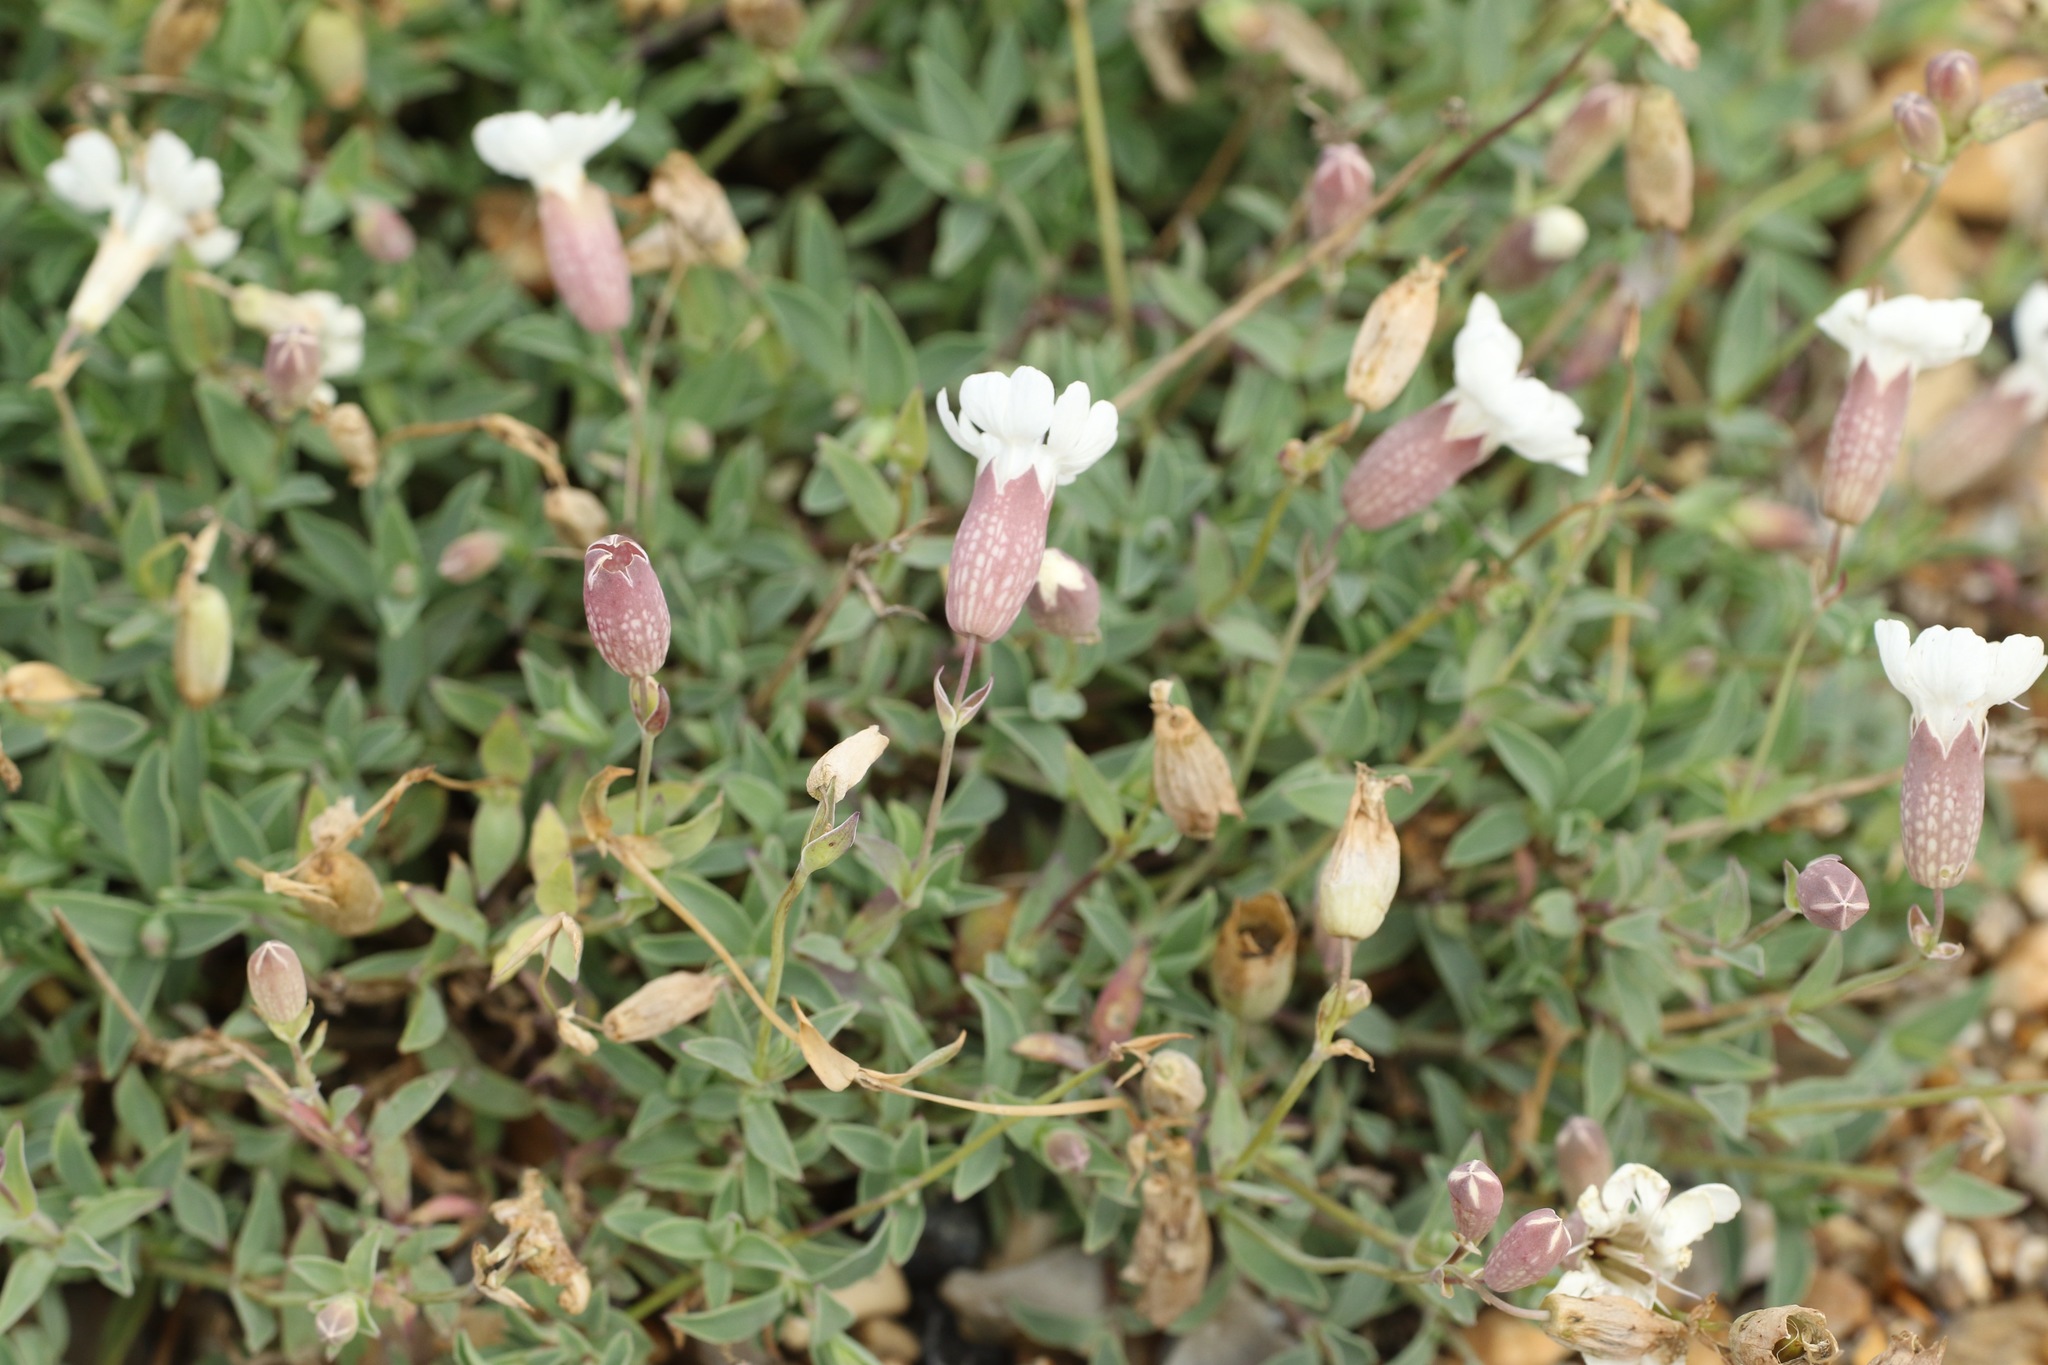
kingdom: Plantae
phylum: Tracheophyta
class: Magnoliopsida
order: Caryophyllales
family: Caryophyllaceae
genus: Silene
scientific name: Silene uniflora
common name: Sea campion
